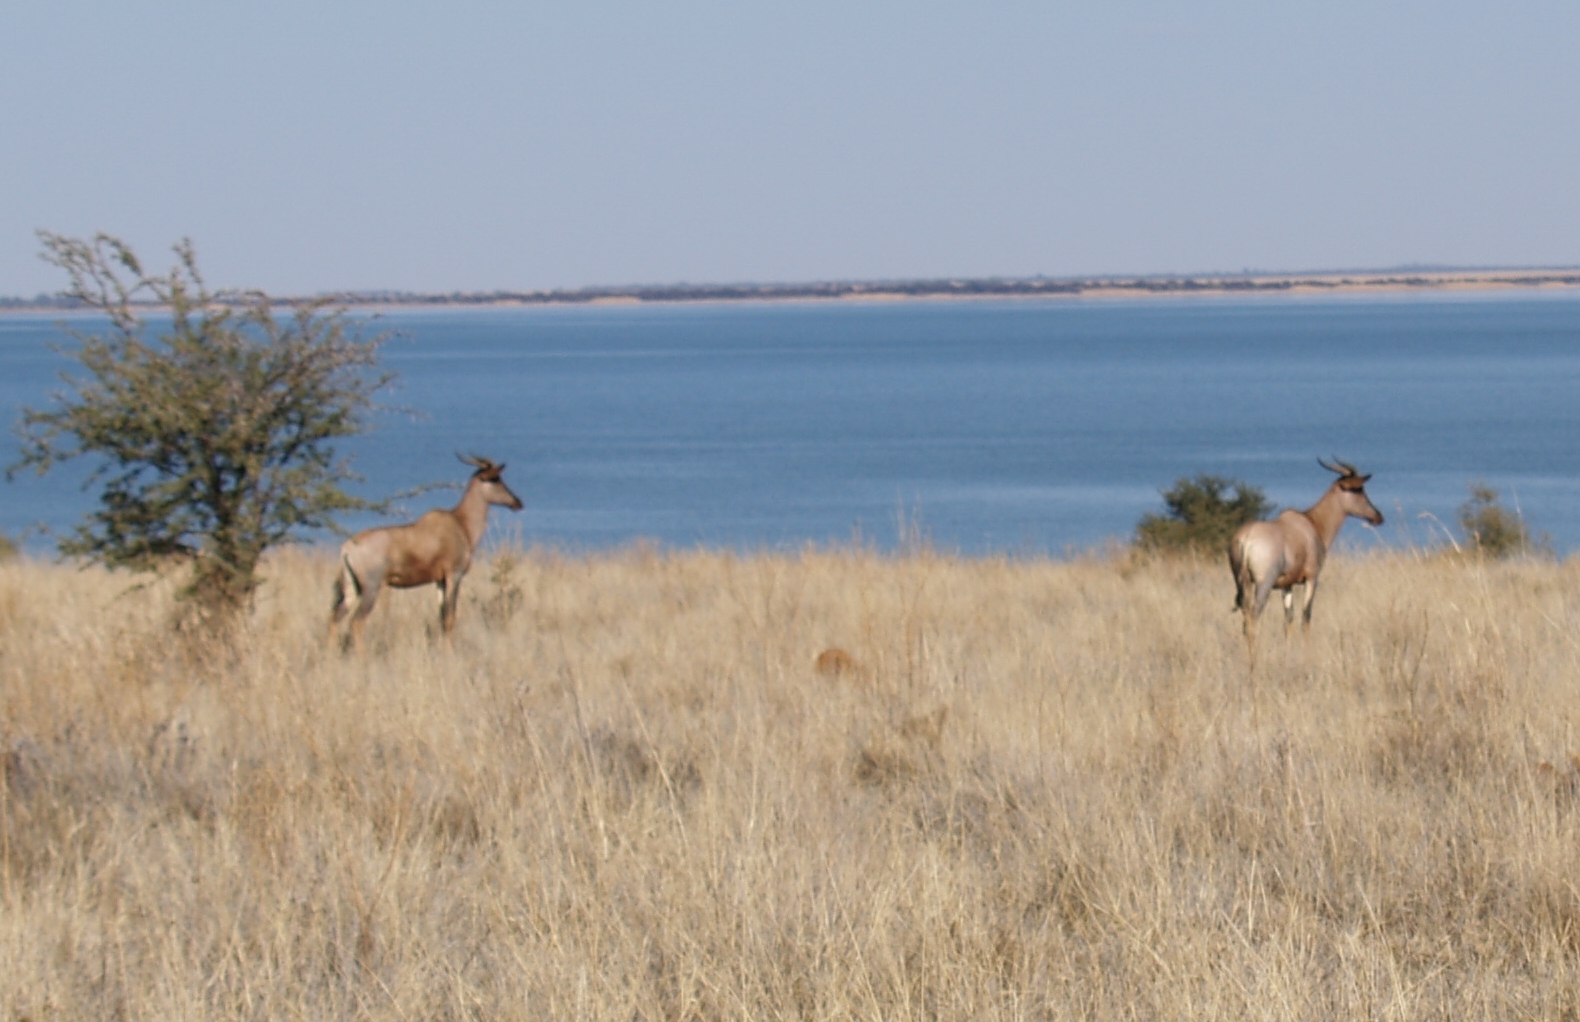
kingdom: Animalia
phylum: Chordata
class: Mammalia
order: Artiodactyla
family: Bovidae
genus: Damaliscus
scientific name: Damaliscus lunatus
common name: Common tsessebe
